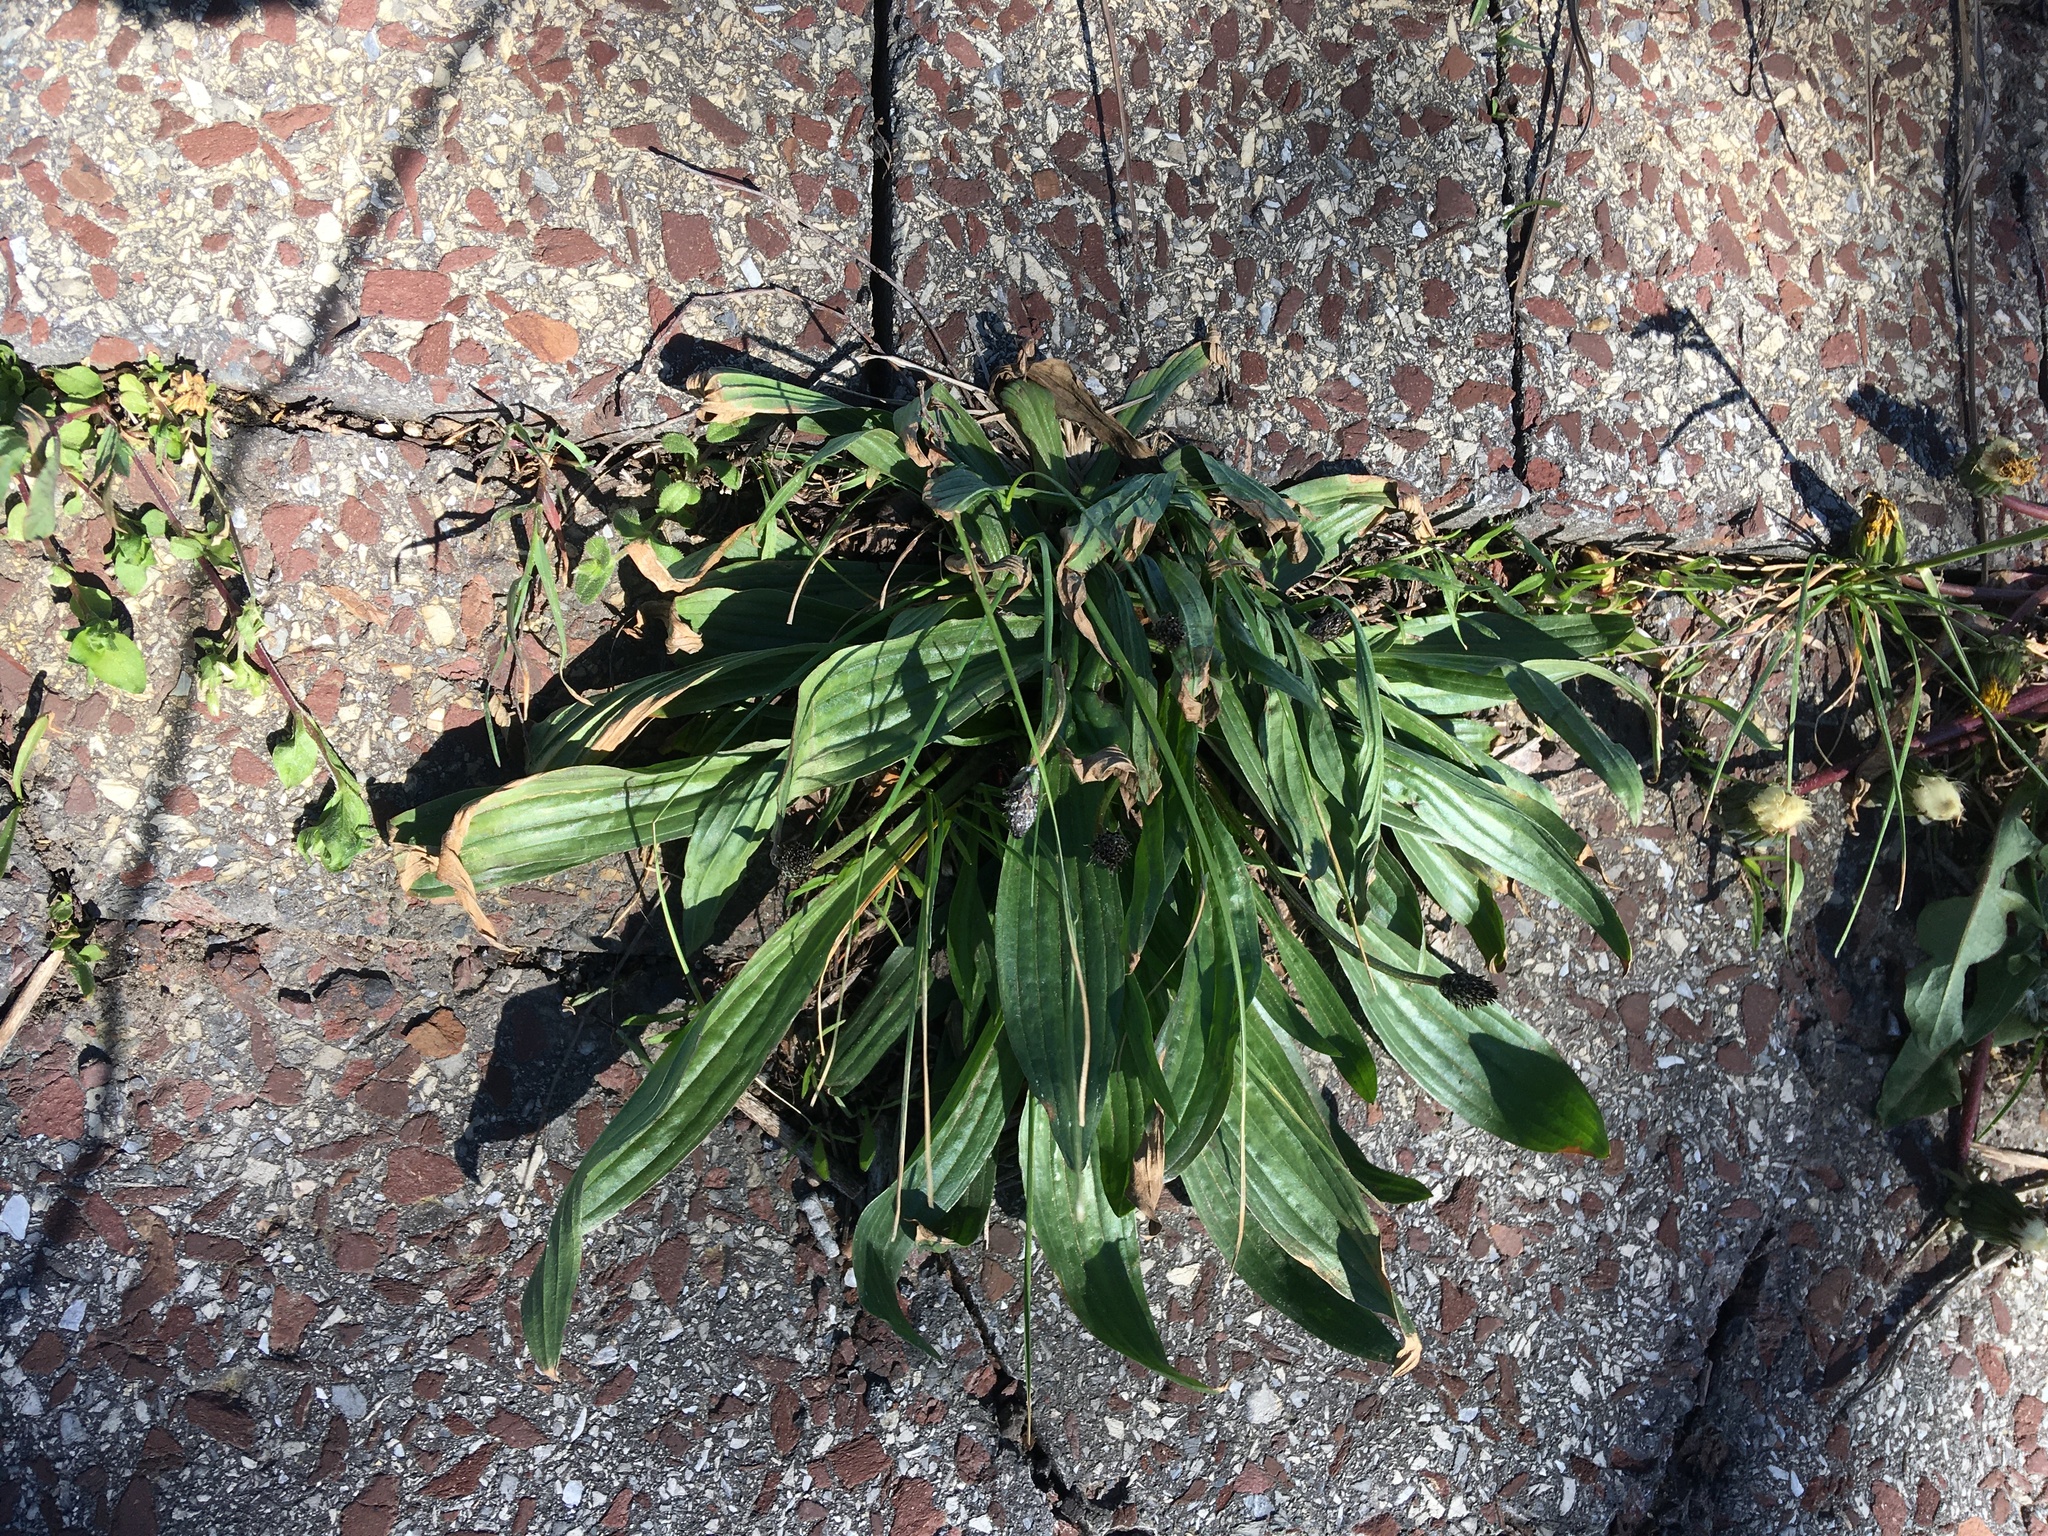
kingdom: Plantae
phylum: Tracheophyta
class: Magnoliopsida
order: Lamiales
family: Plantaginaceae
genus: Plantago
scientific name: Plantago lanceolata
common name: Ribwort plantain
